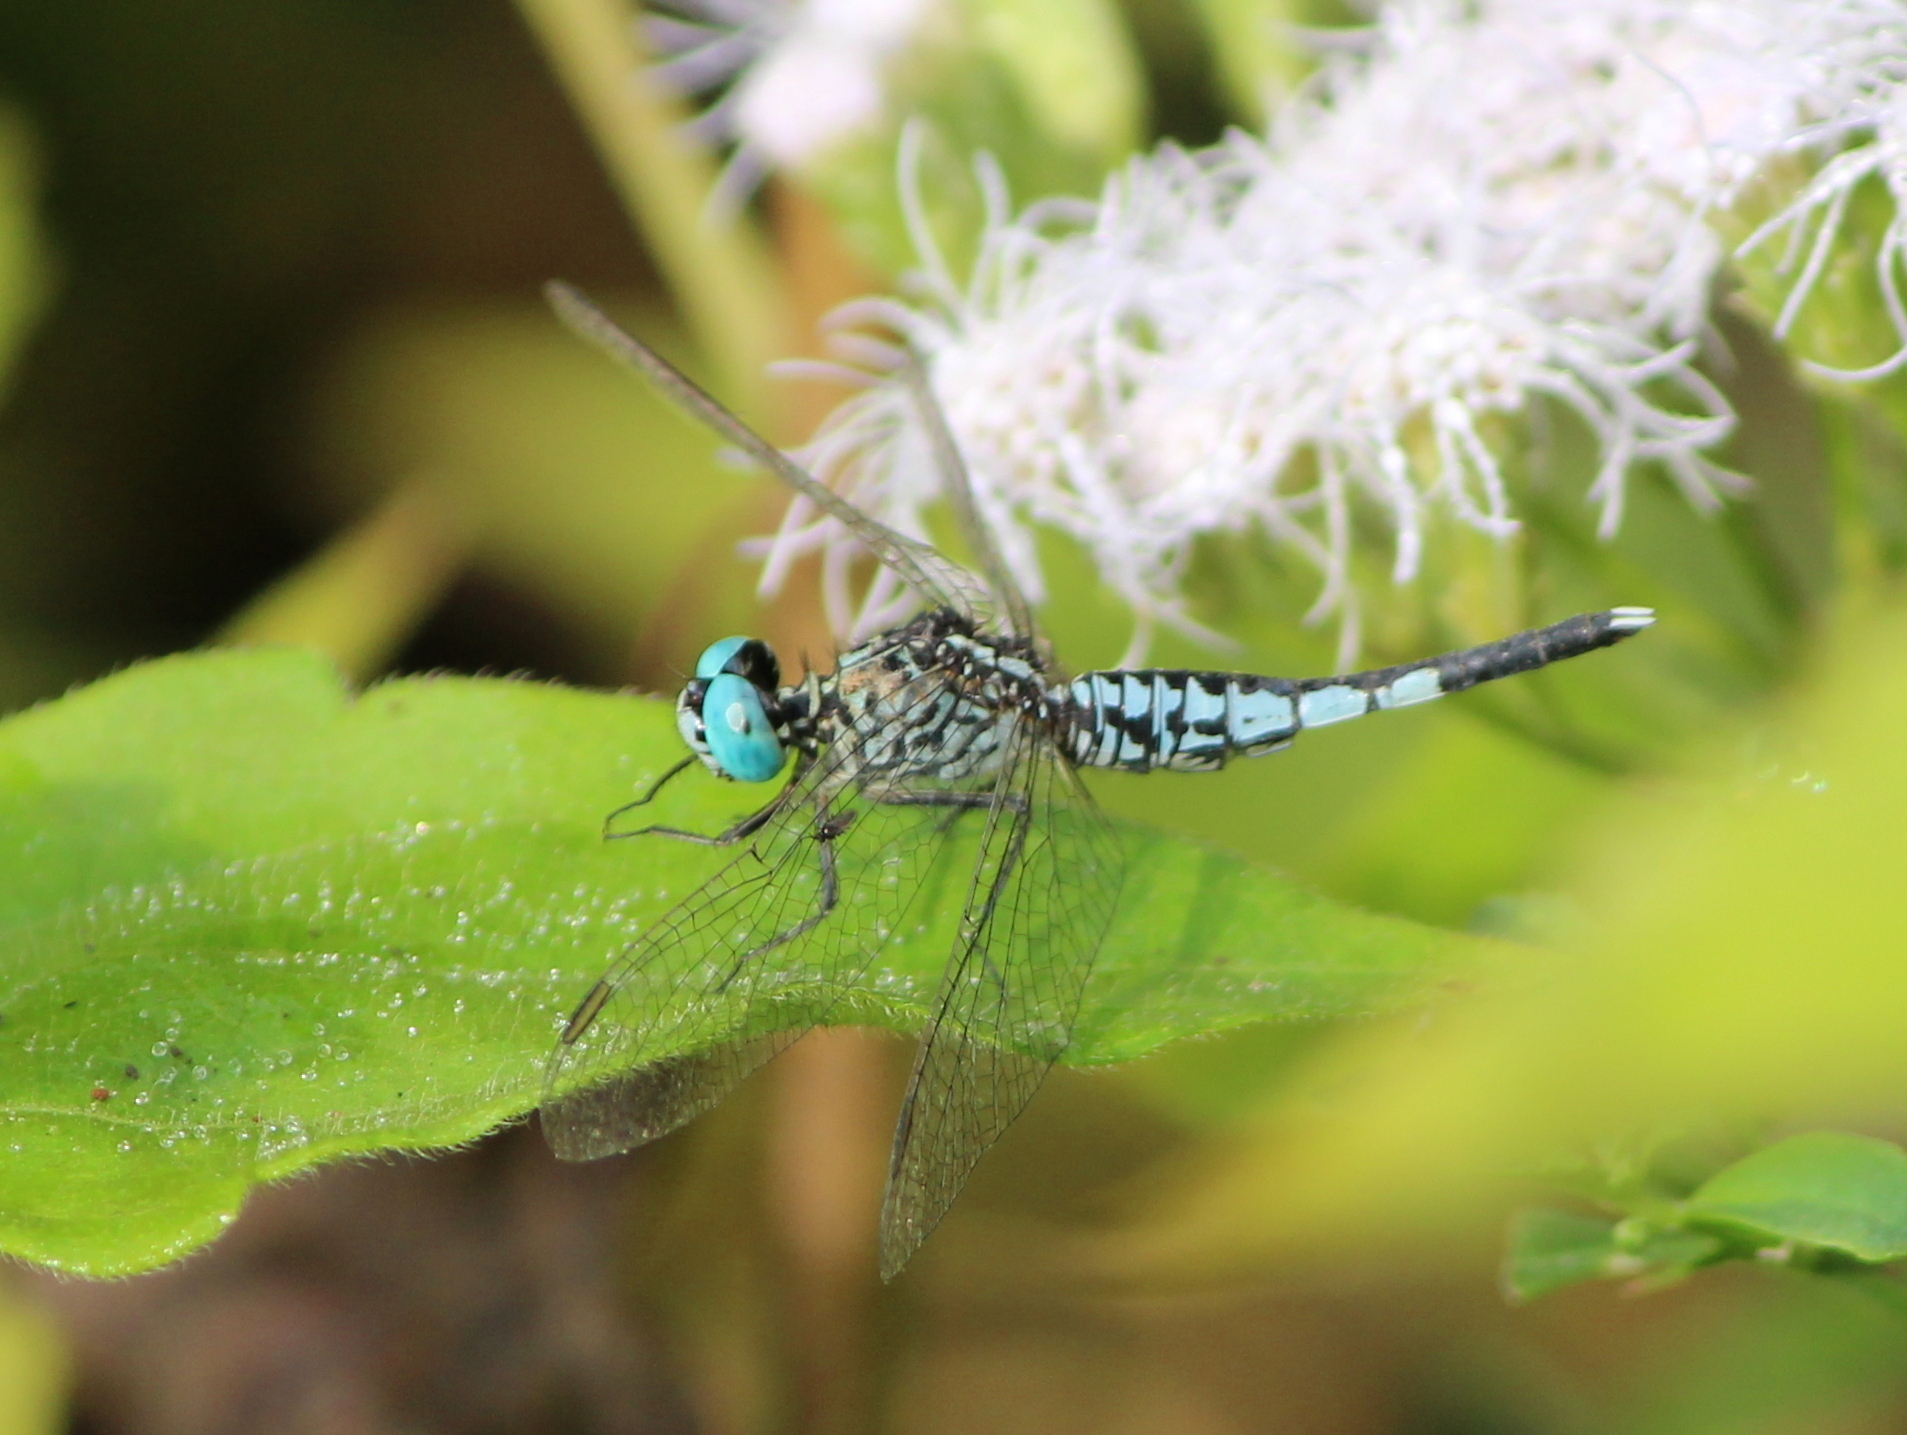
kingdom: Animalia
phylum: Arthropoda
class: Insecta
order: Odonata
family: Libellulidae
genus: Acisoma
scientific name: Acisoma panorpoides
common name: Asian pintail
